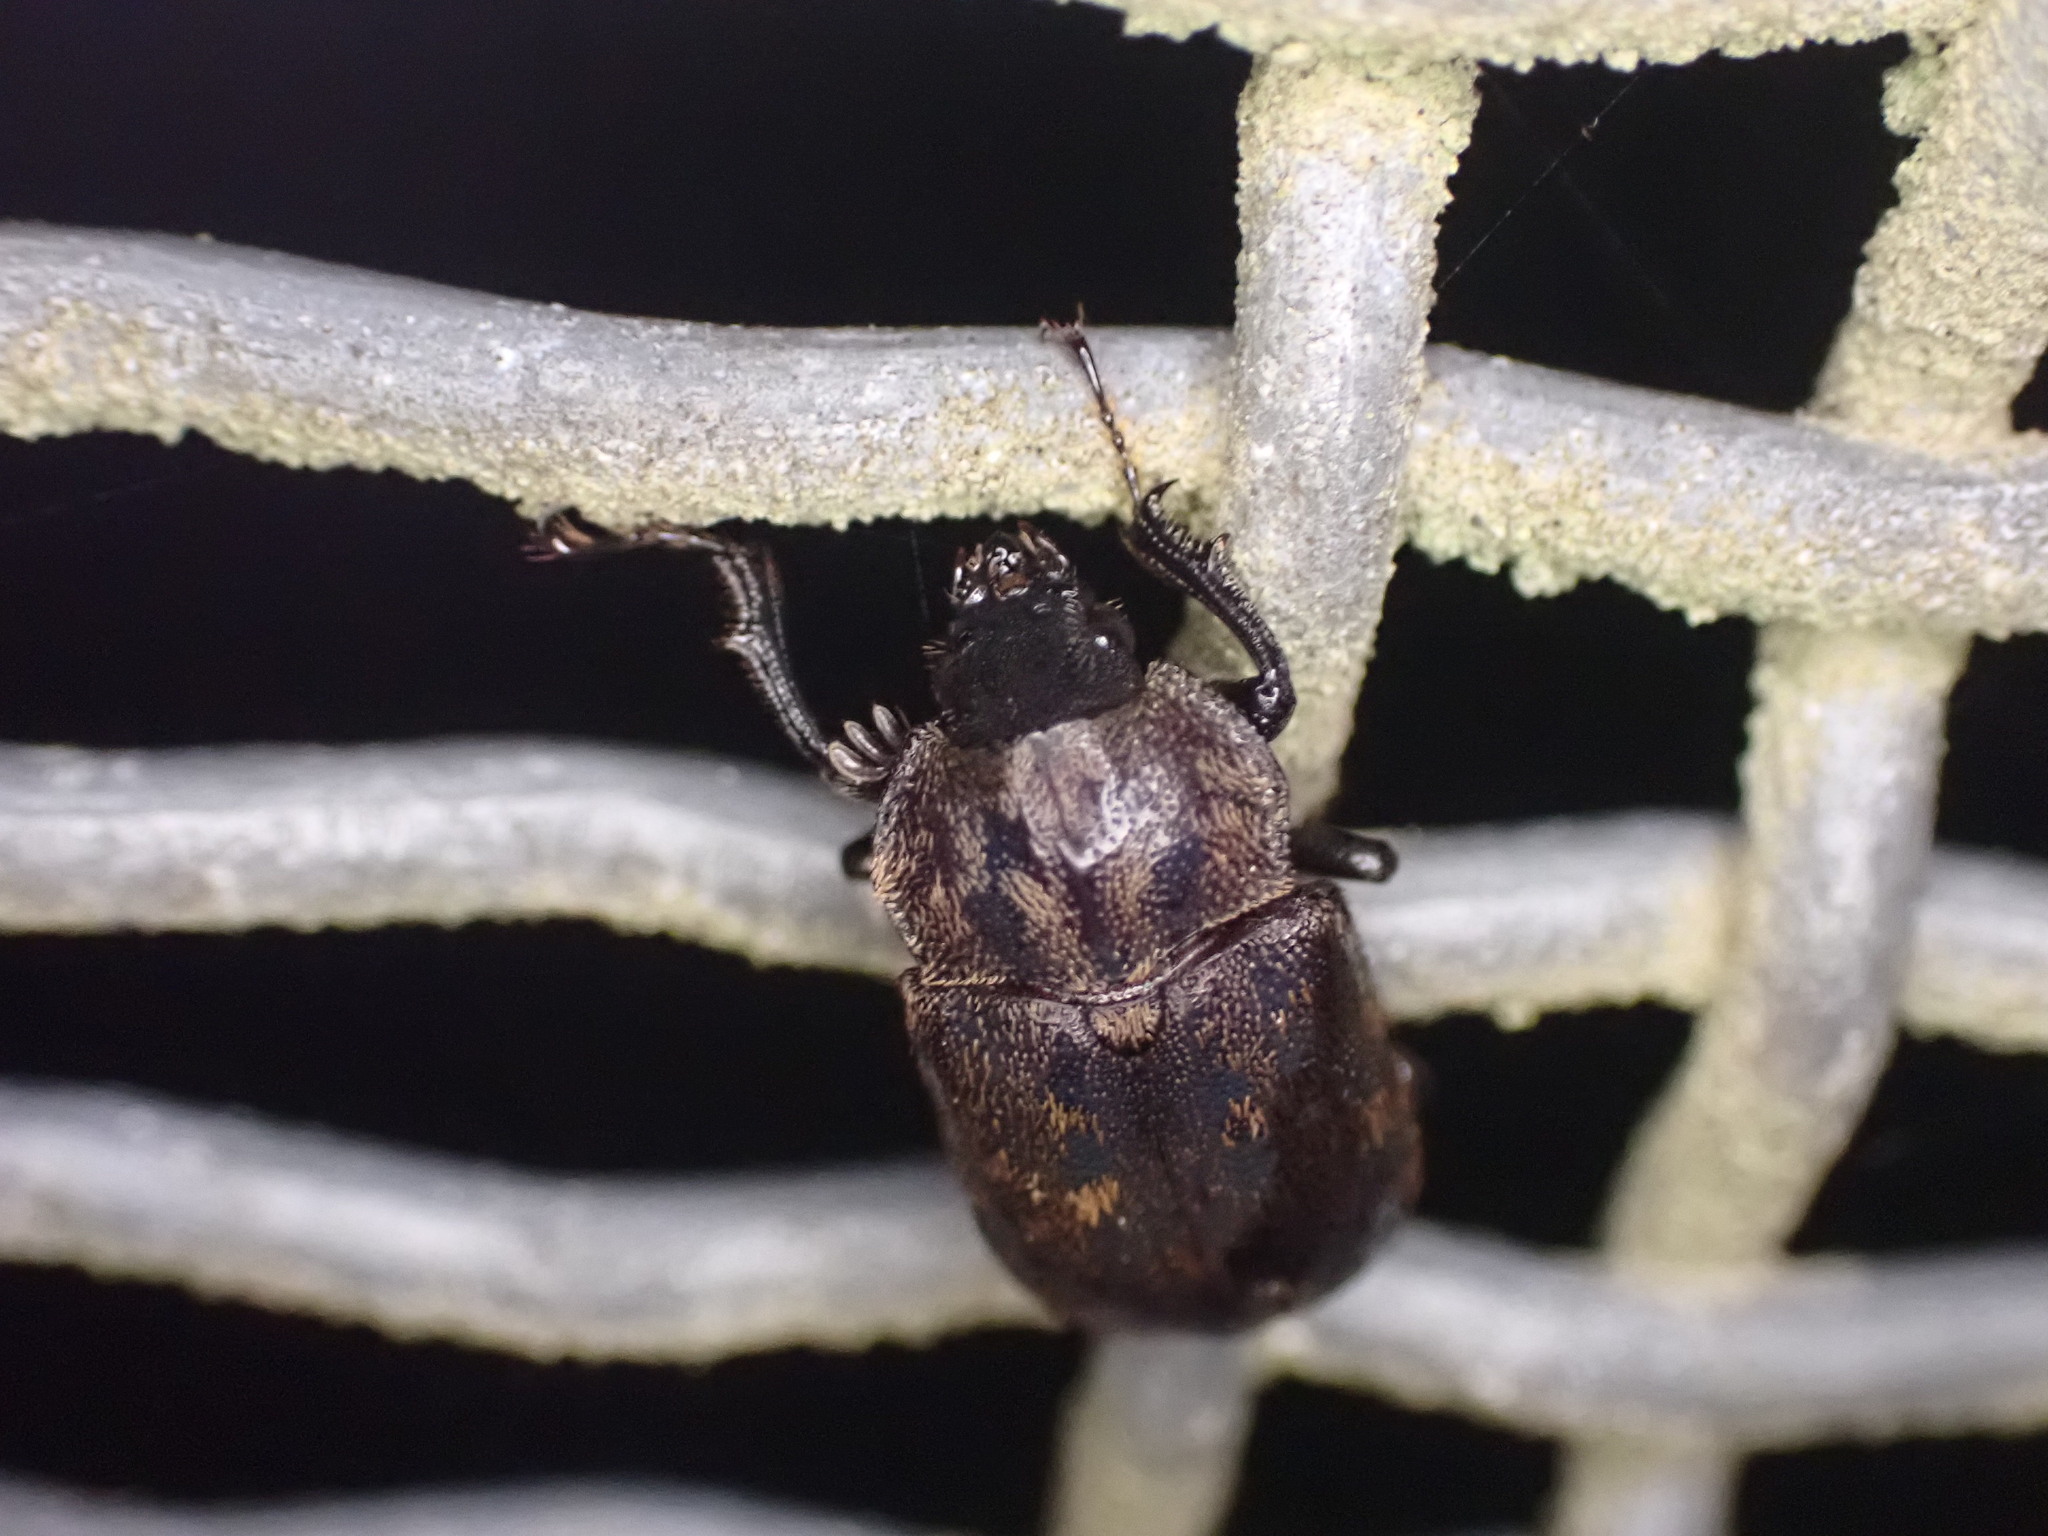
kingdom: Animalia
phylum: Arthropoda
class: Insecta
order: Coleoptera
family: Lucanidae
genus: Mitophyllus
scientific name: Mitophyllus parrianus
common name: Parry's stag beetle
